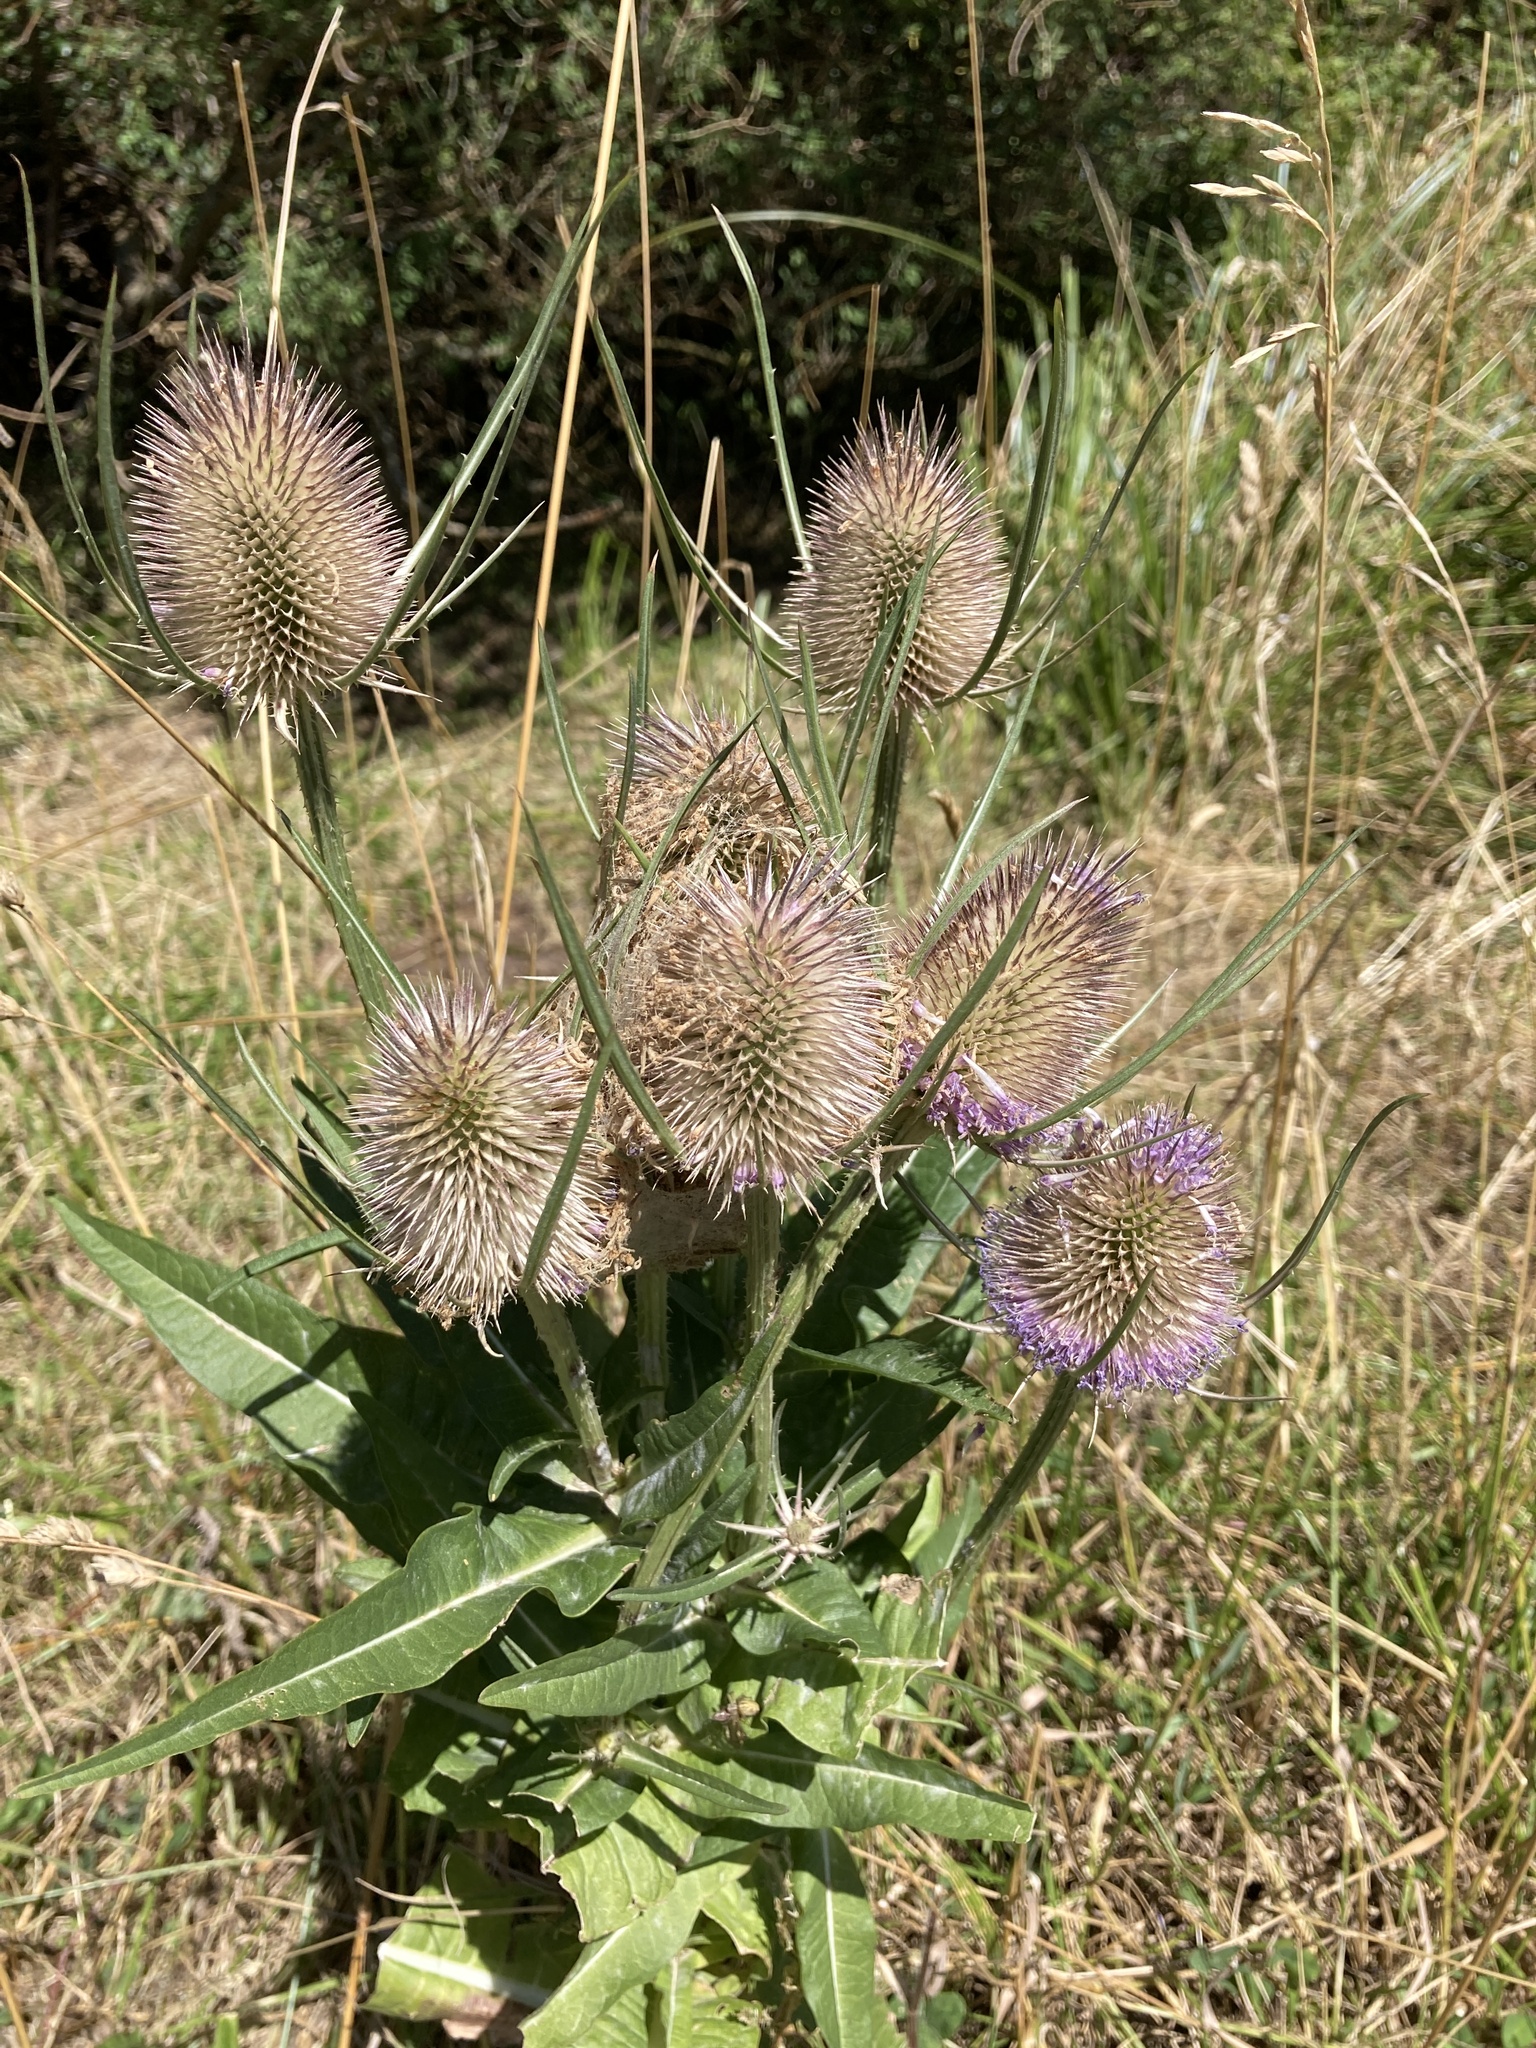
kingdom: Plantae
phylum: Tracheophyta
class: Magnoliopsida
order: Dipsacales
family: Caprifoliaceae
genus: Dipsacus
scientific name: Dipsacus fullonum
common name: Teasel
